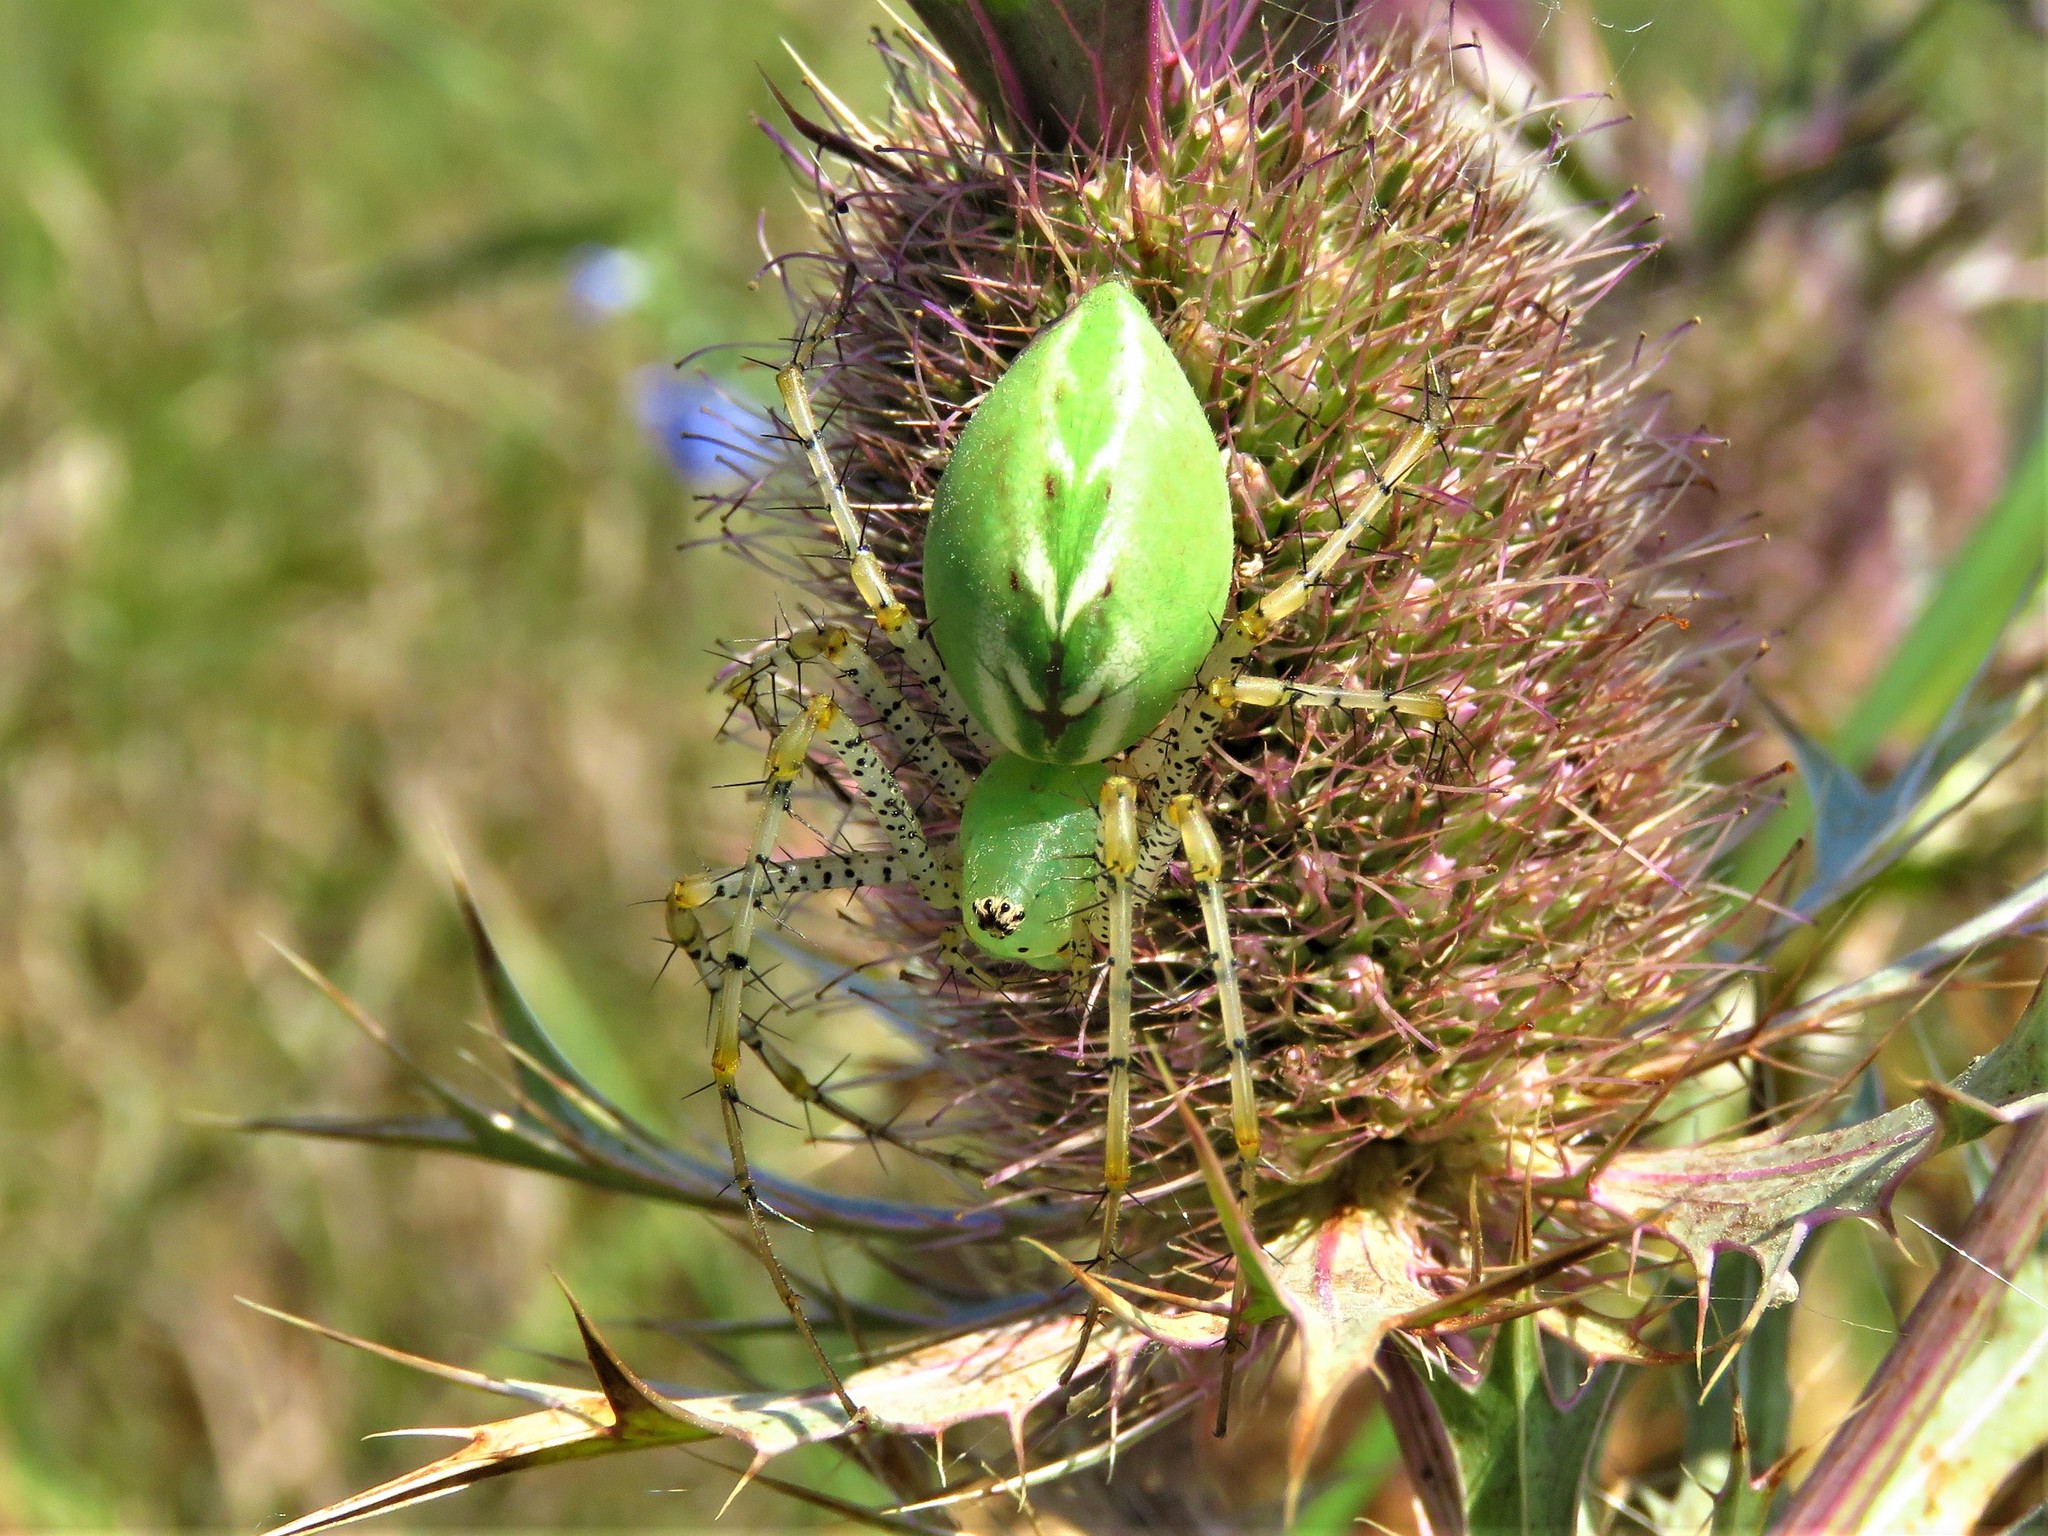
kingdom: Animalia
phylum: Arthropoda
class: Arachnida
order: Araneae
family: Oxyopidae
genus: Peucetia
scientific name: Peucetia viridans
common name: Lynx spiders
